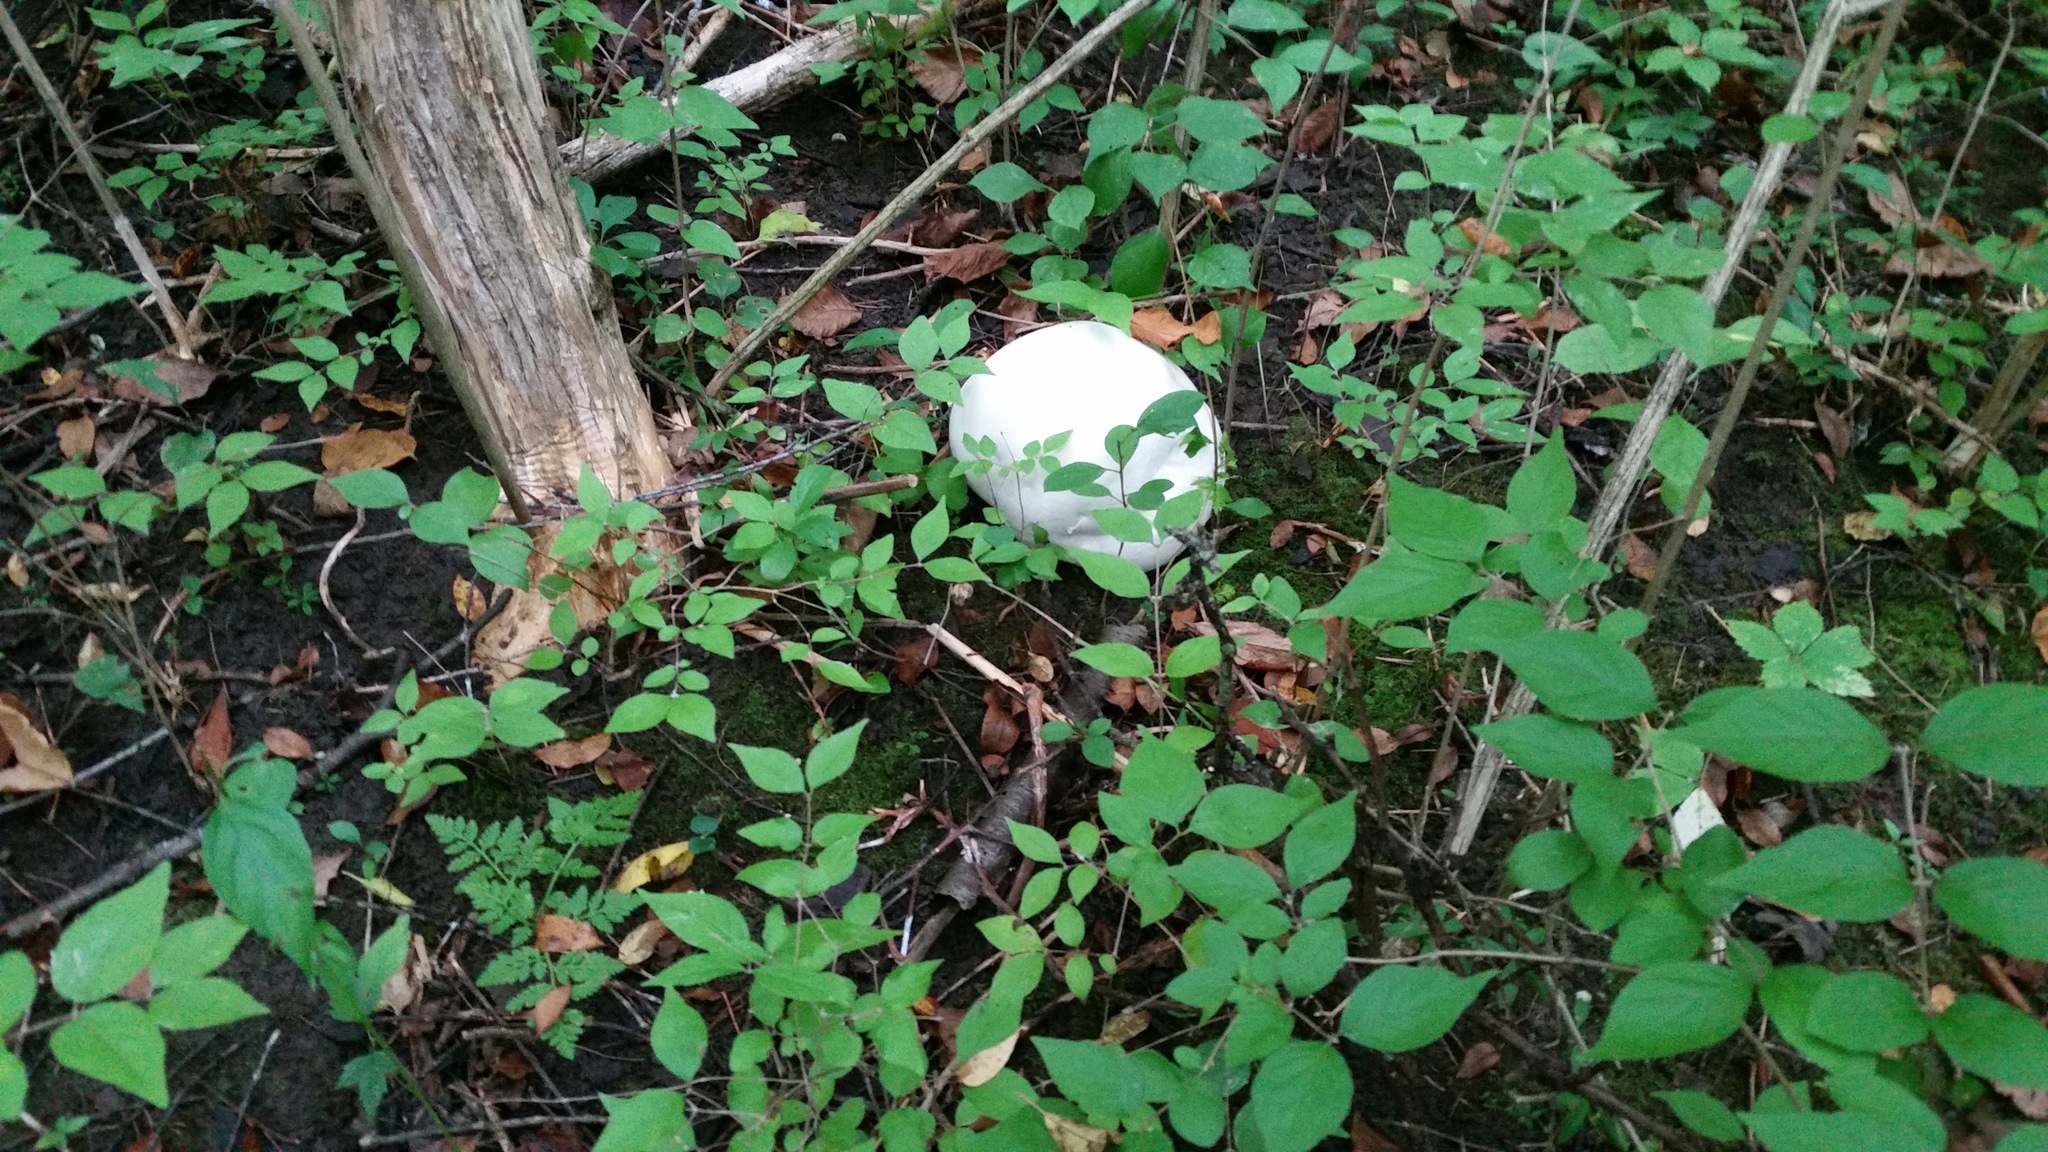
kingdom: Fungi
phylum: Basidiomycota
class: Agaricomycetes
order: Agaricales
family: Lycoperdaceae
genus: Calvatia
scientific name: Calvatia gigantea
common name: Giant puffball
